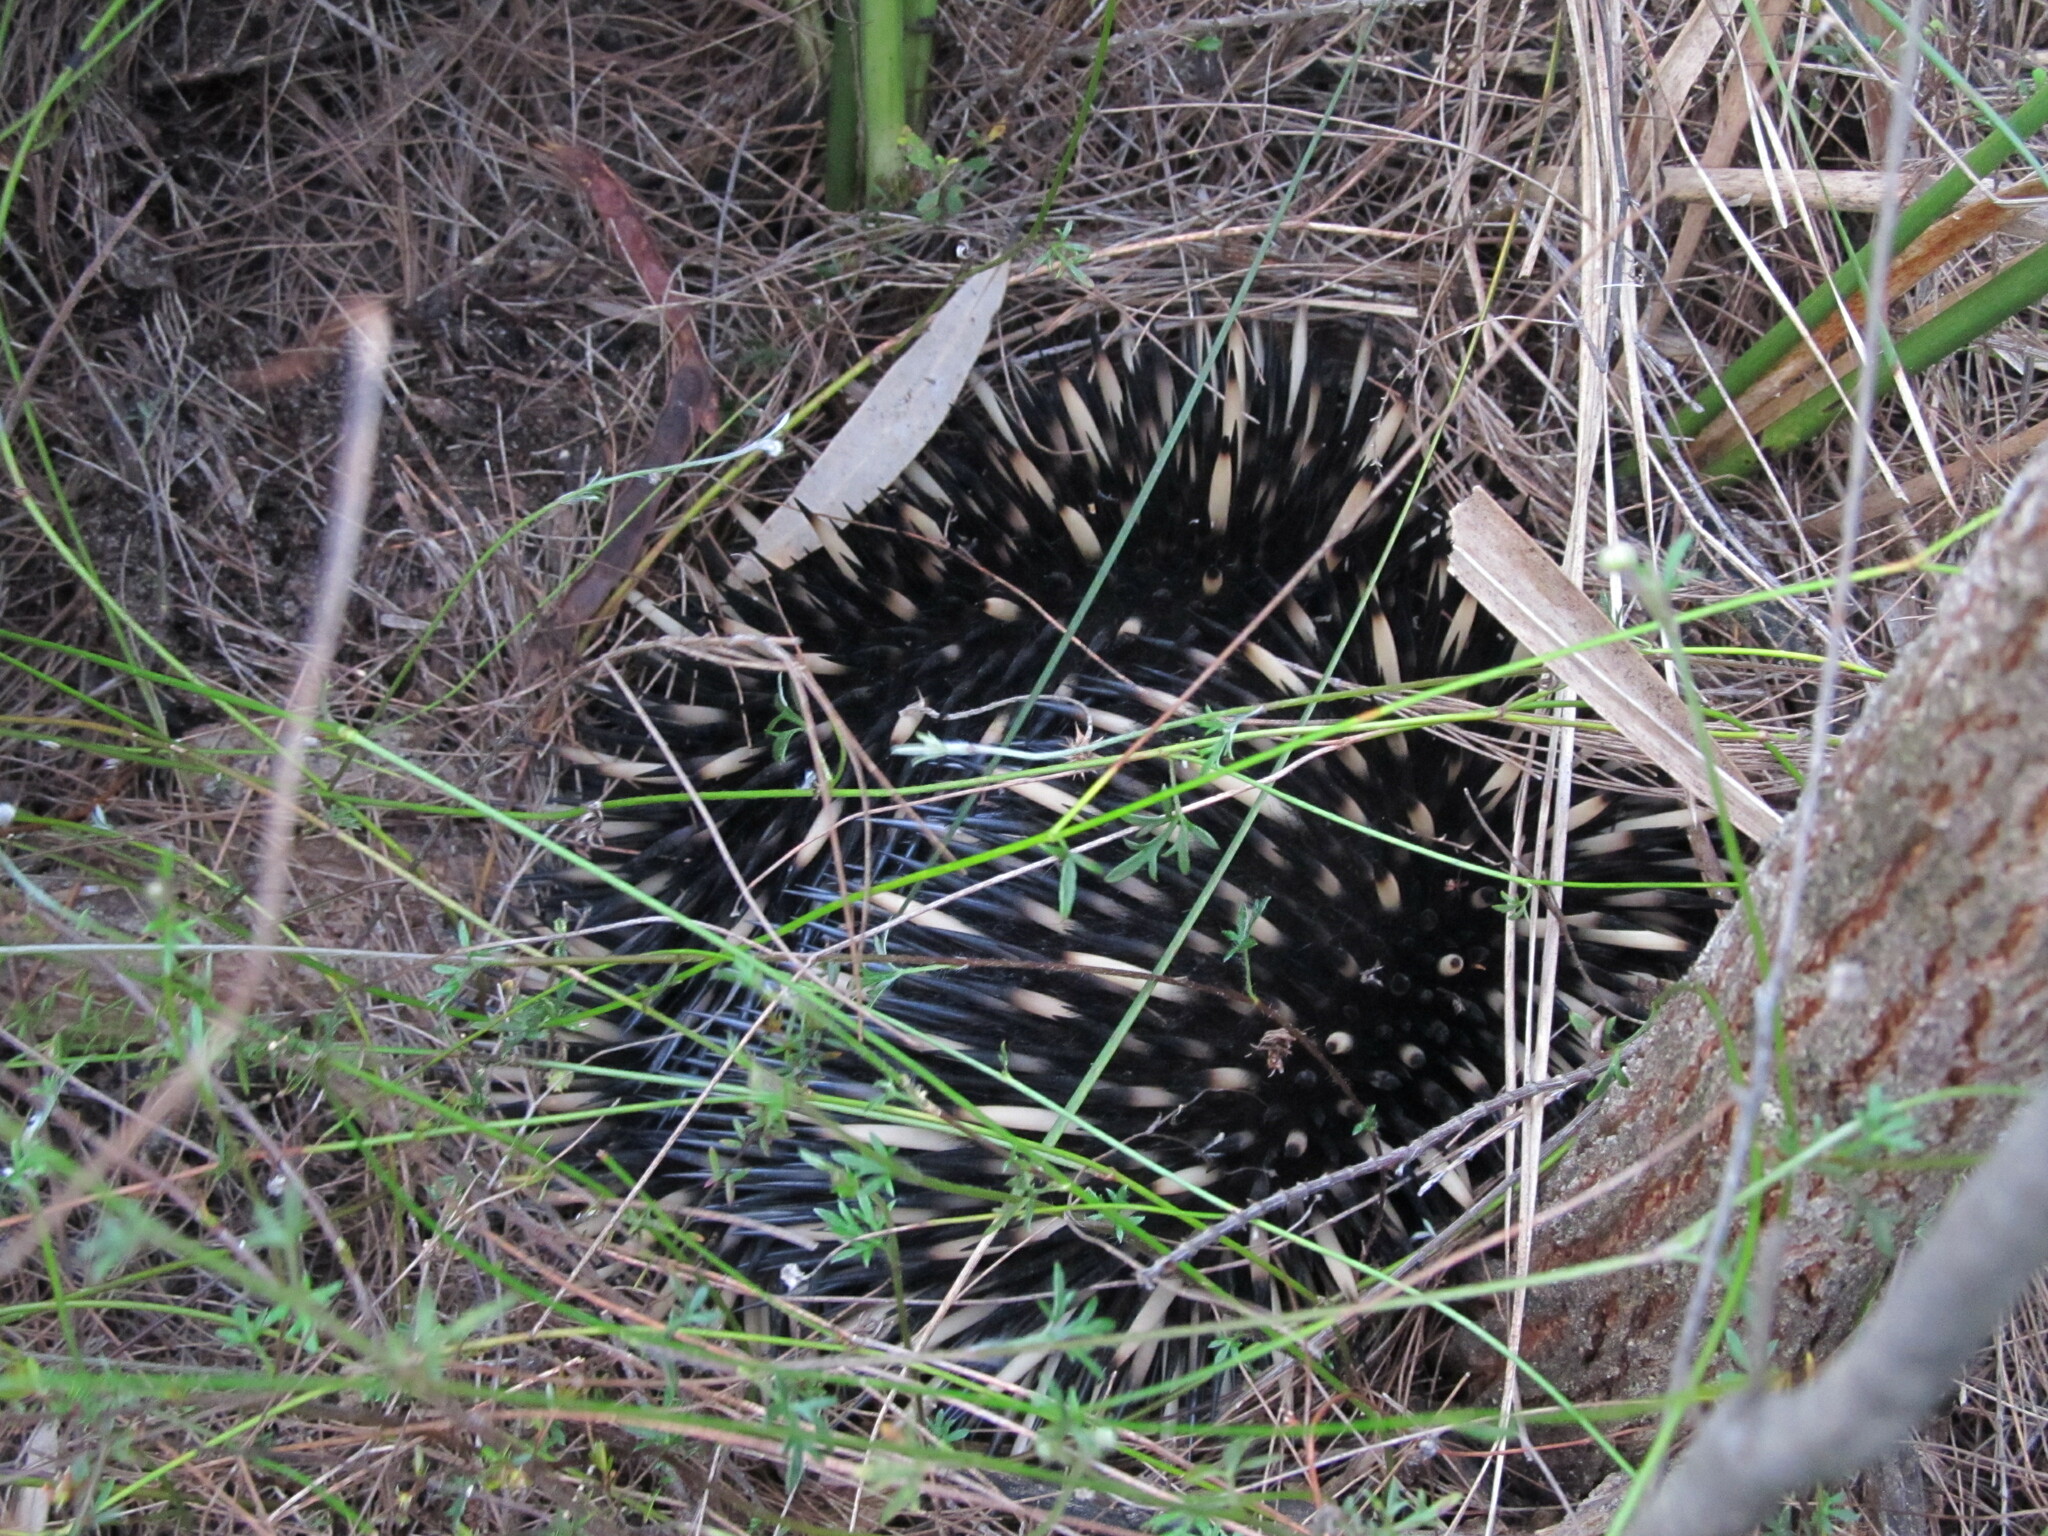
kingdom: Animalia
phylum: Chordata
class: Mammalia
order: Monotremata
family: Tachyglossidae
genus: Tachyglossus
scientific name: Tachyglossus aculeatus
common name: Short-beaked echidna
